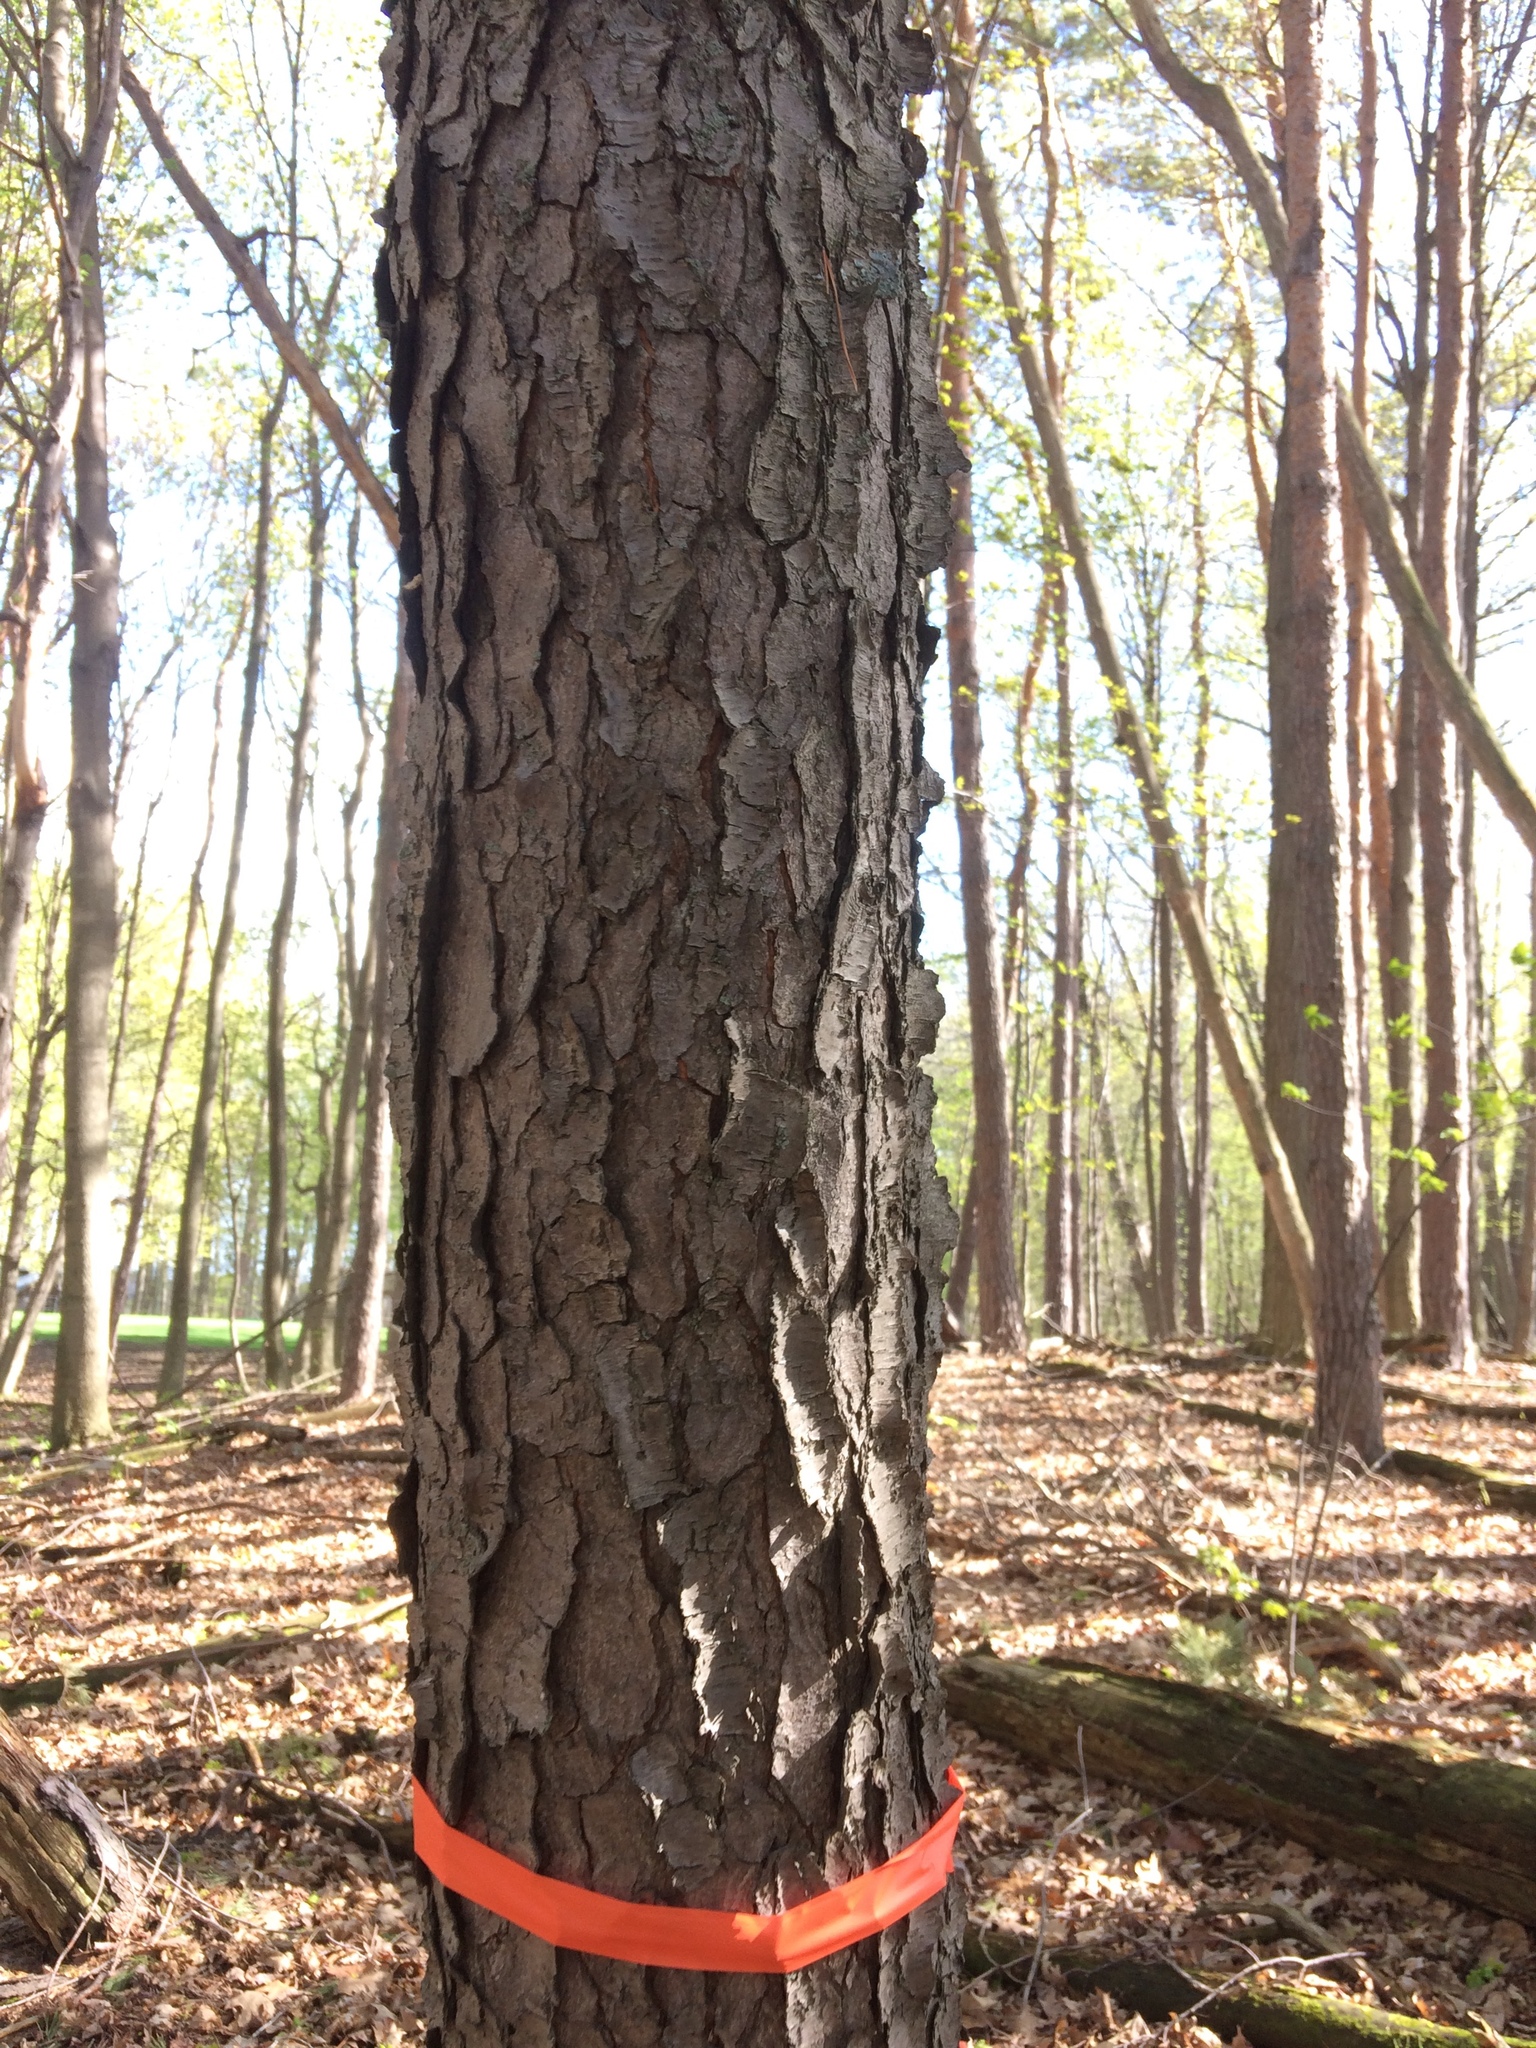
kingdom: Plantae
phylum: Tracheophyta
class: Magnoliopsida
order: Rosales
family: Rosaceae
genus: Prunus
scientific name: Prunus serotina
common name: Black cherry
